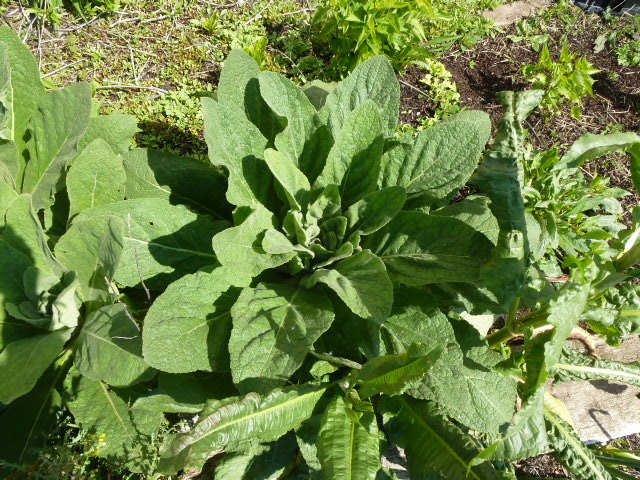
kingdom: Plantae
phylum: Tracheophyta
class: Magnoliopsida
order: Lamiales
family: Scrophulariaceae
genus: Verbascum
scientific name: Verbascum thapsus
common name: Common mullein
